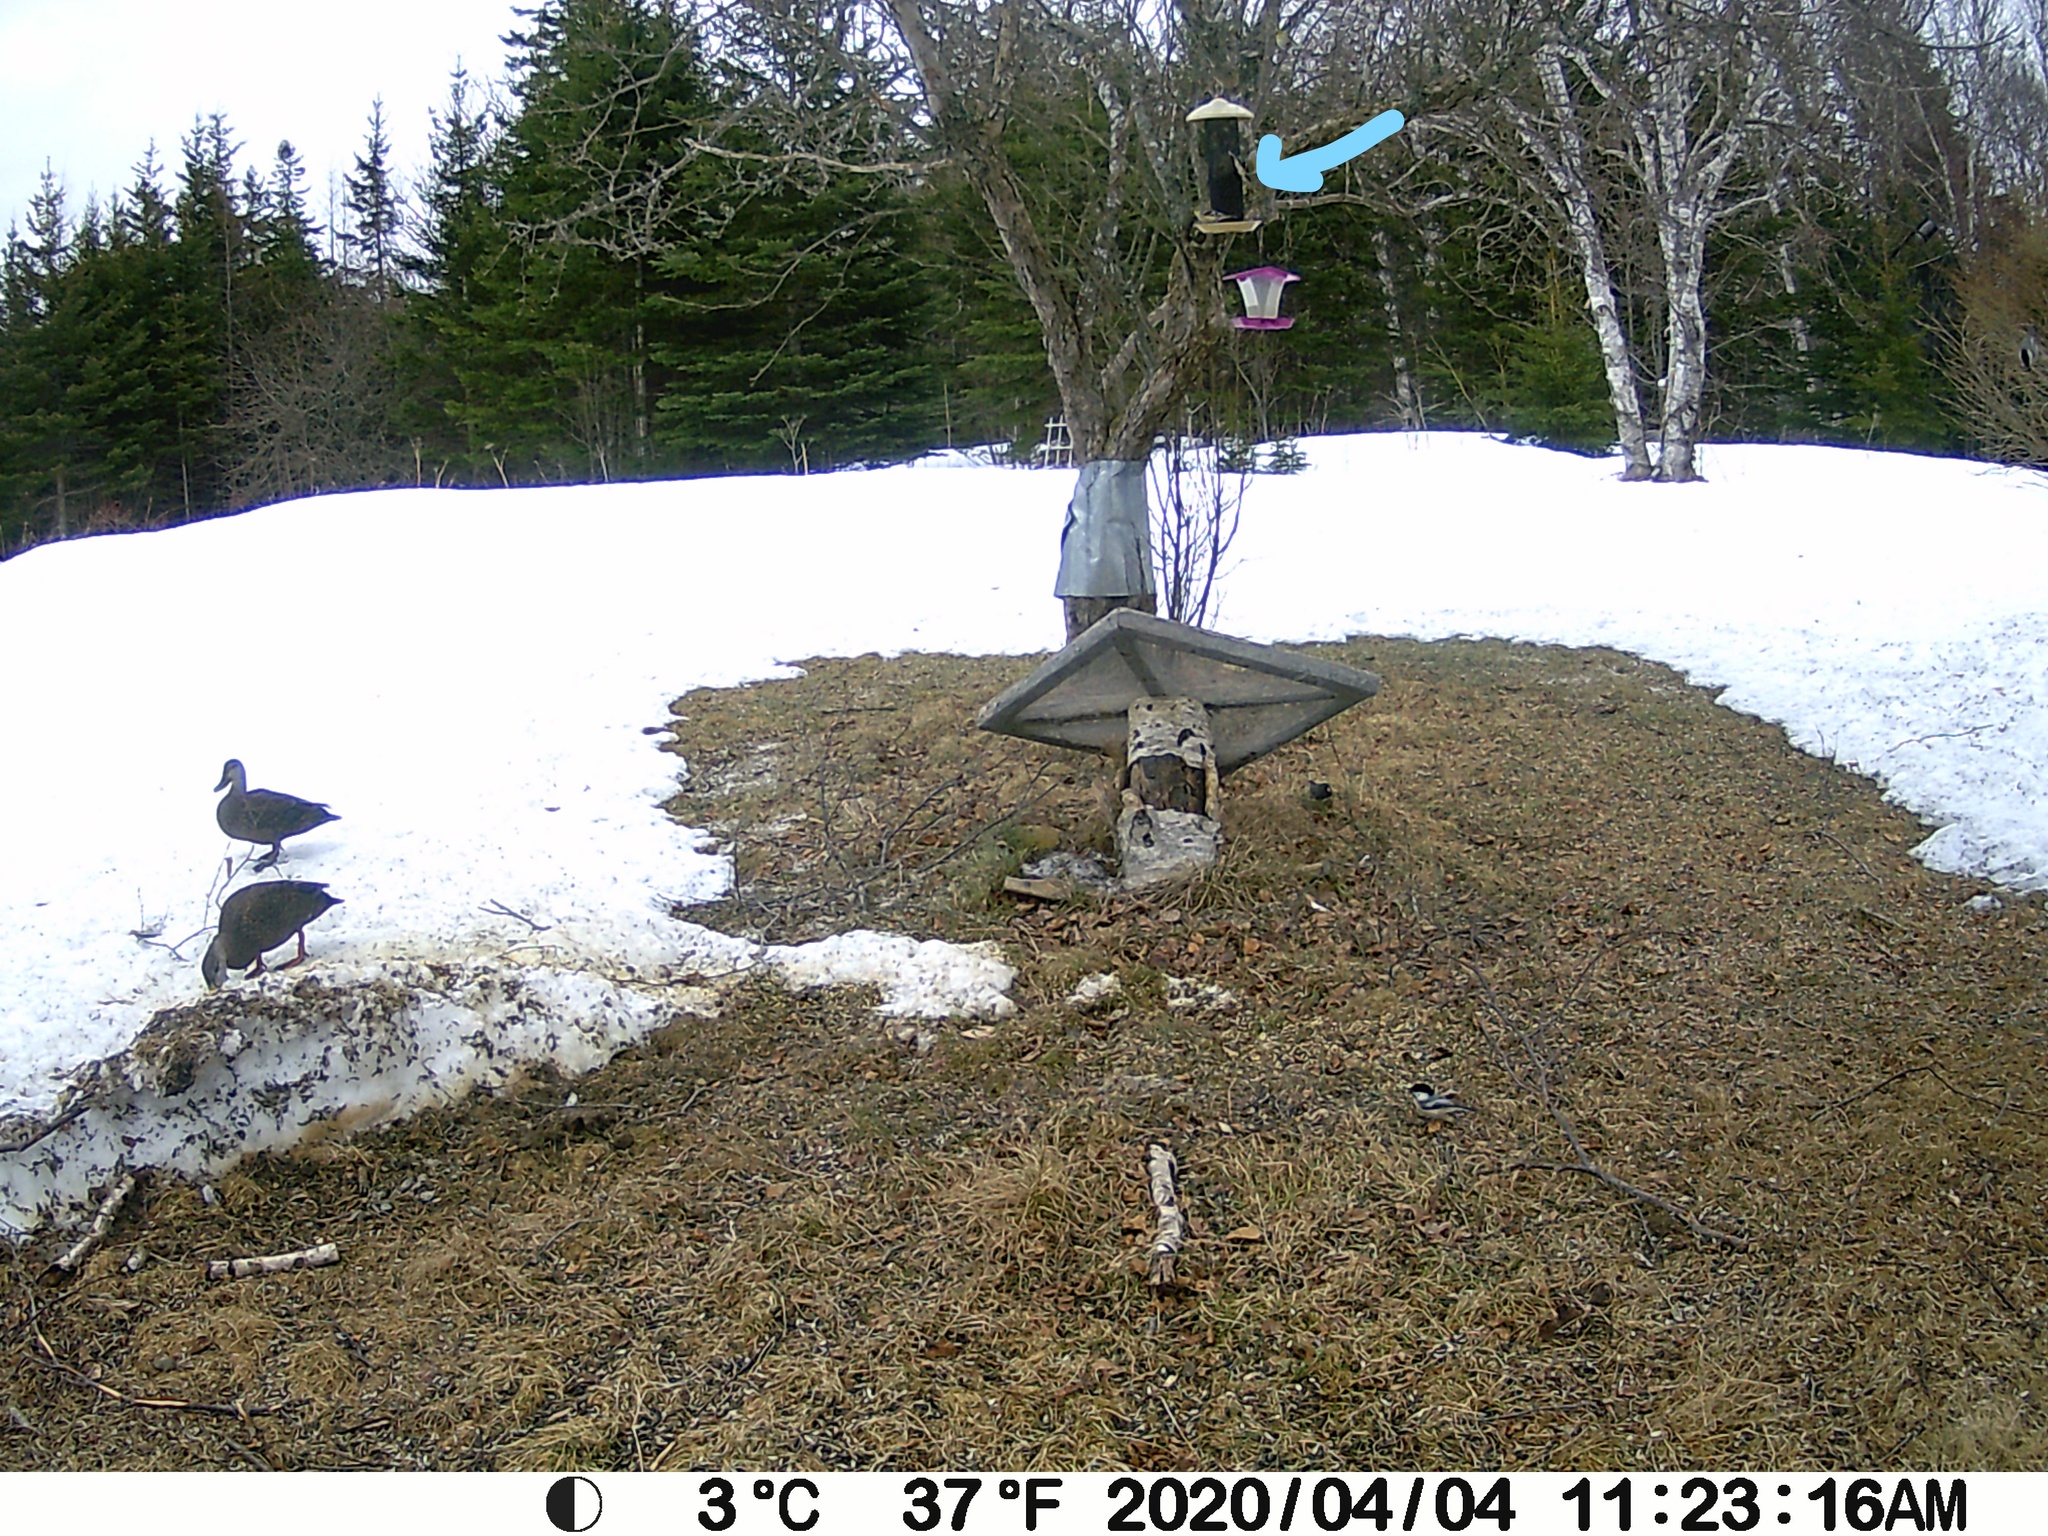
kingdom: Animalia
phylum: Chordata
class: Aves
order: Passeriformes
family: Fringillidae
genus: Spinus
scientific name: Spinus tristis
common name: American goldfinch
